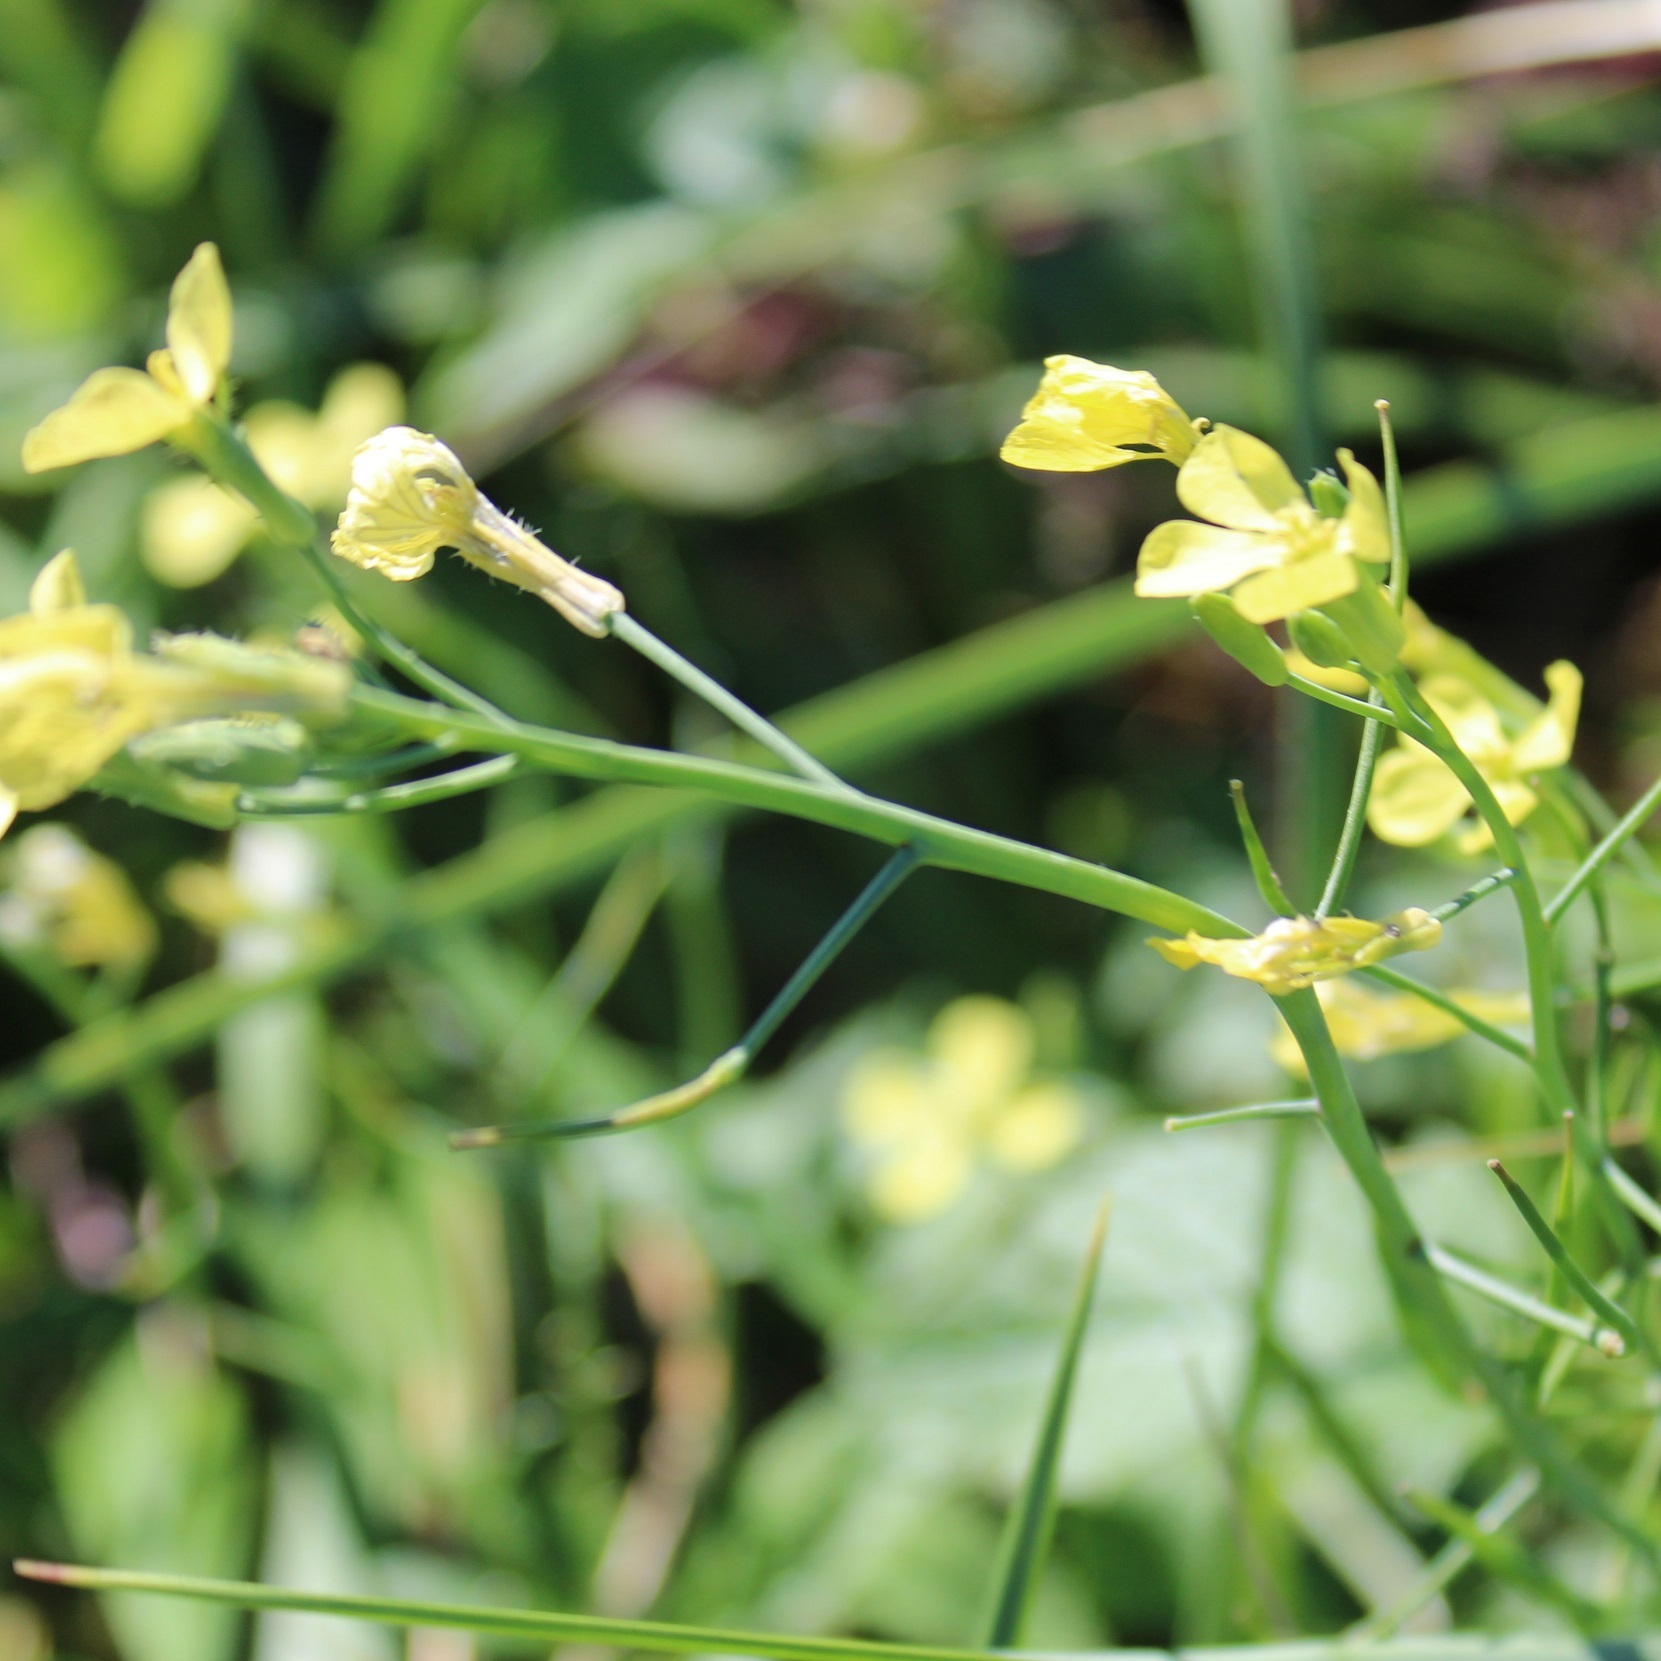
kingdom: Plantae
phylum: Tracheophyta
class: Magnoliopsida
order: Brassicales
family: Brassicaceae
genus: Raphanus
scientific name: Raphanus raphanistrum
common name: Wild radish
